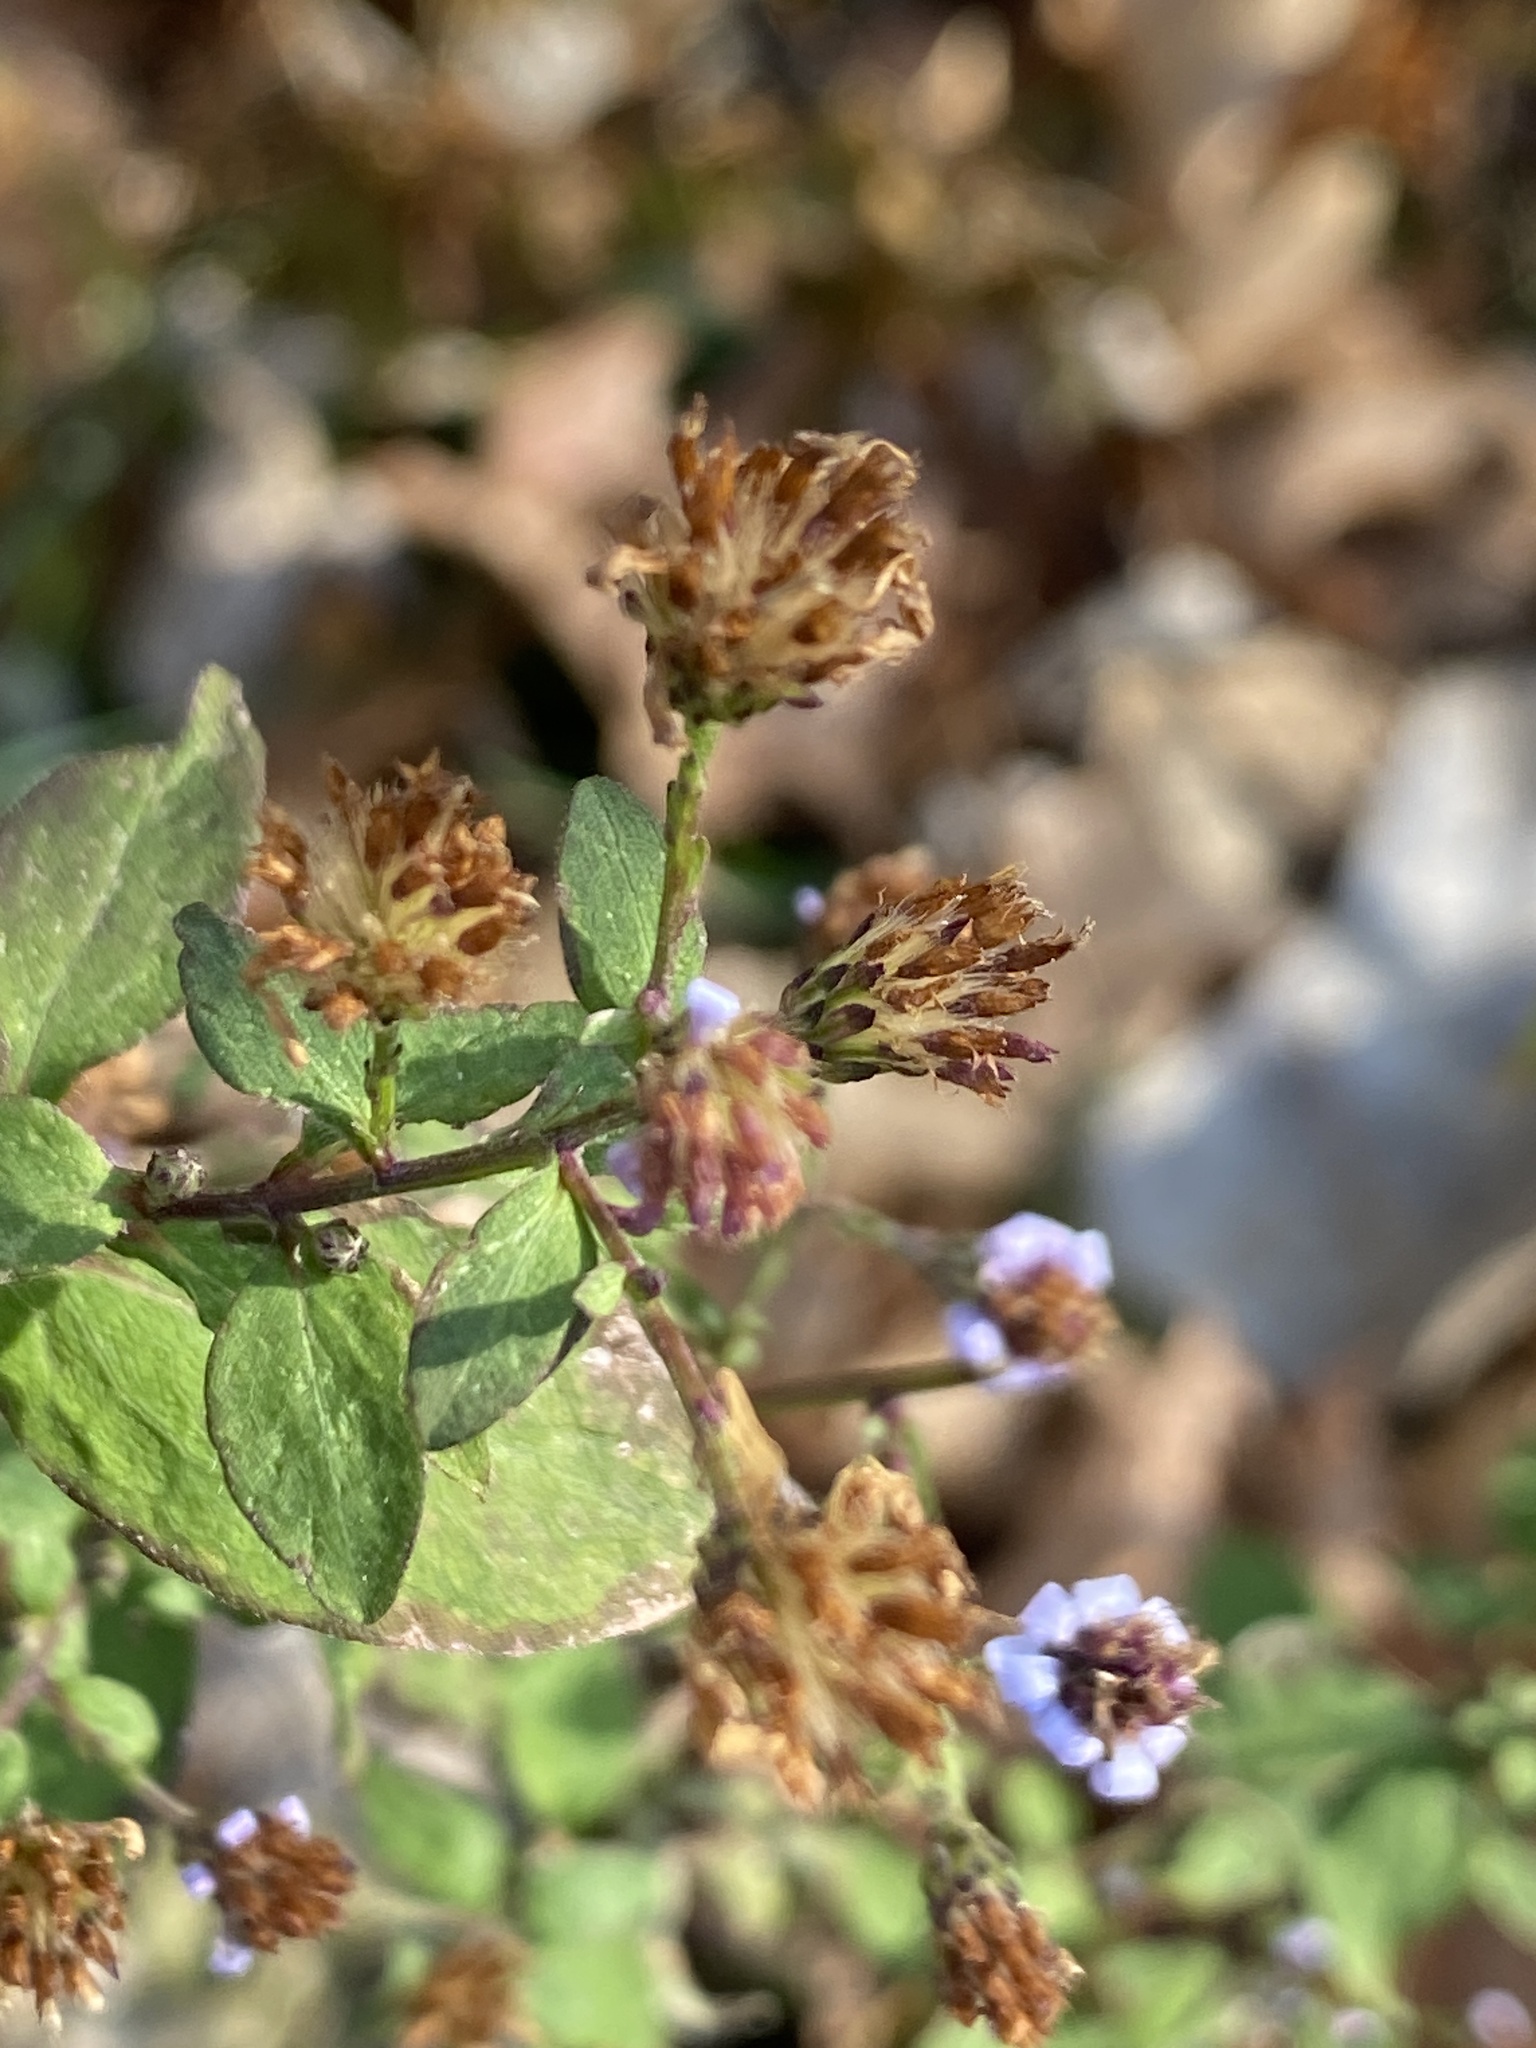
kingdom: Plantae
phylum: Tracheophyta
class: Magnoliopsida
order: Asterales
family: Asteraceae
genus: Symphyotrichum
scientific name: Symphyotrichum cordifolium
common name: Beeweed
